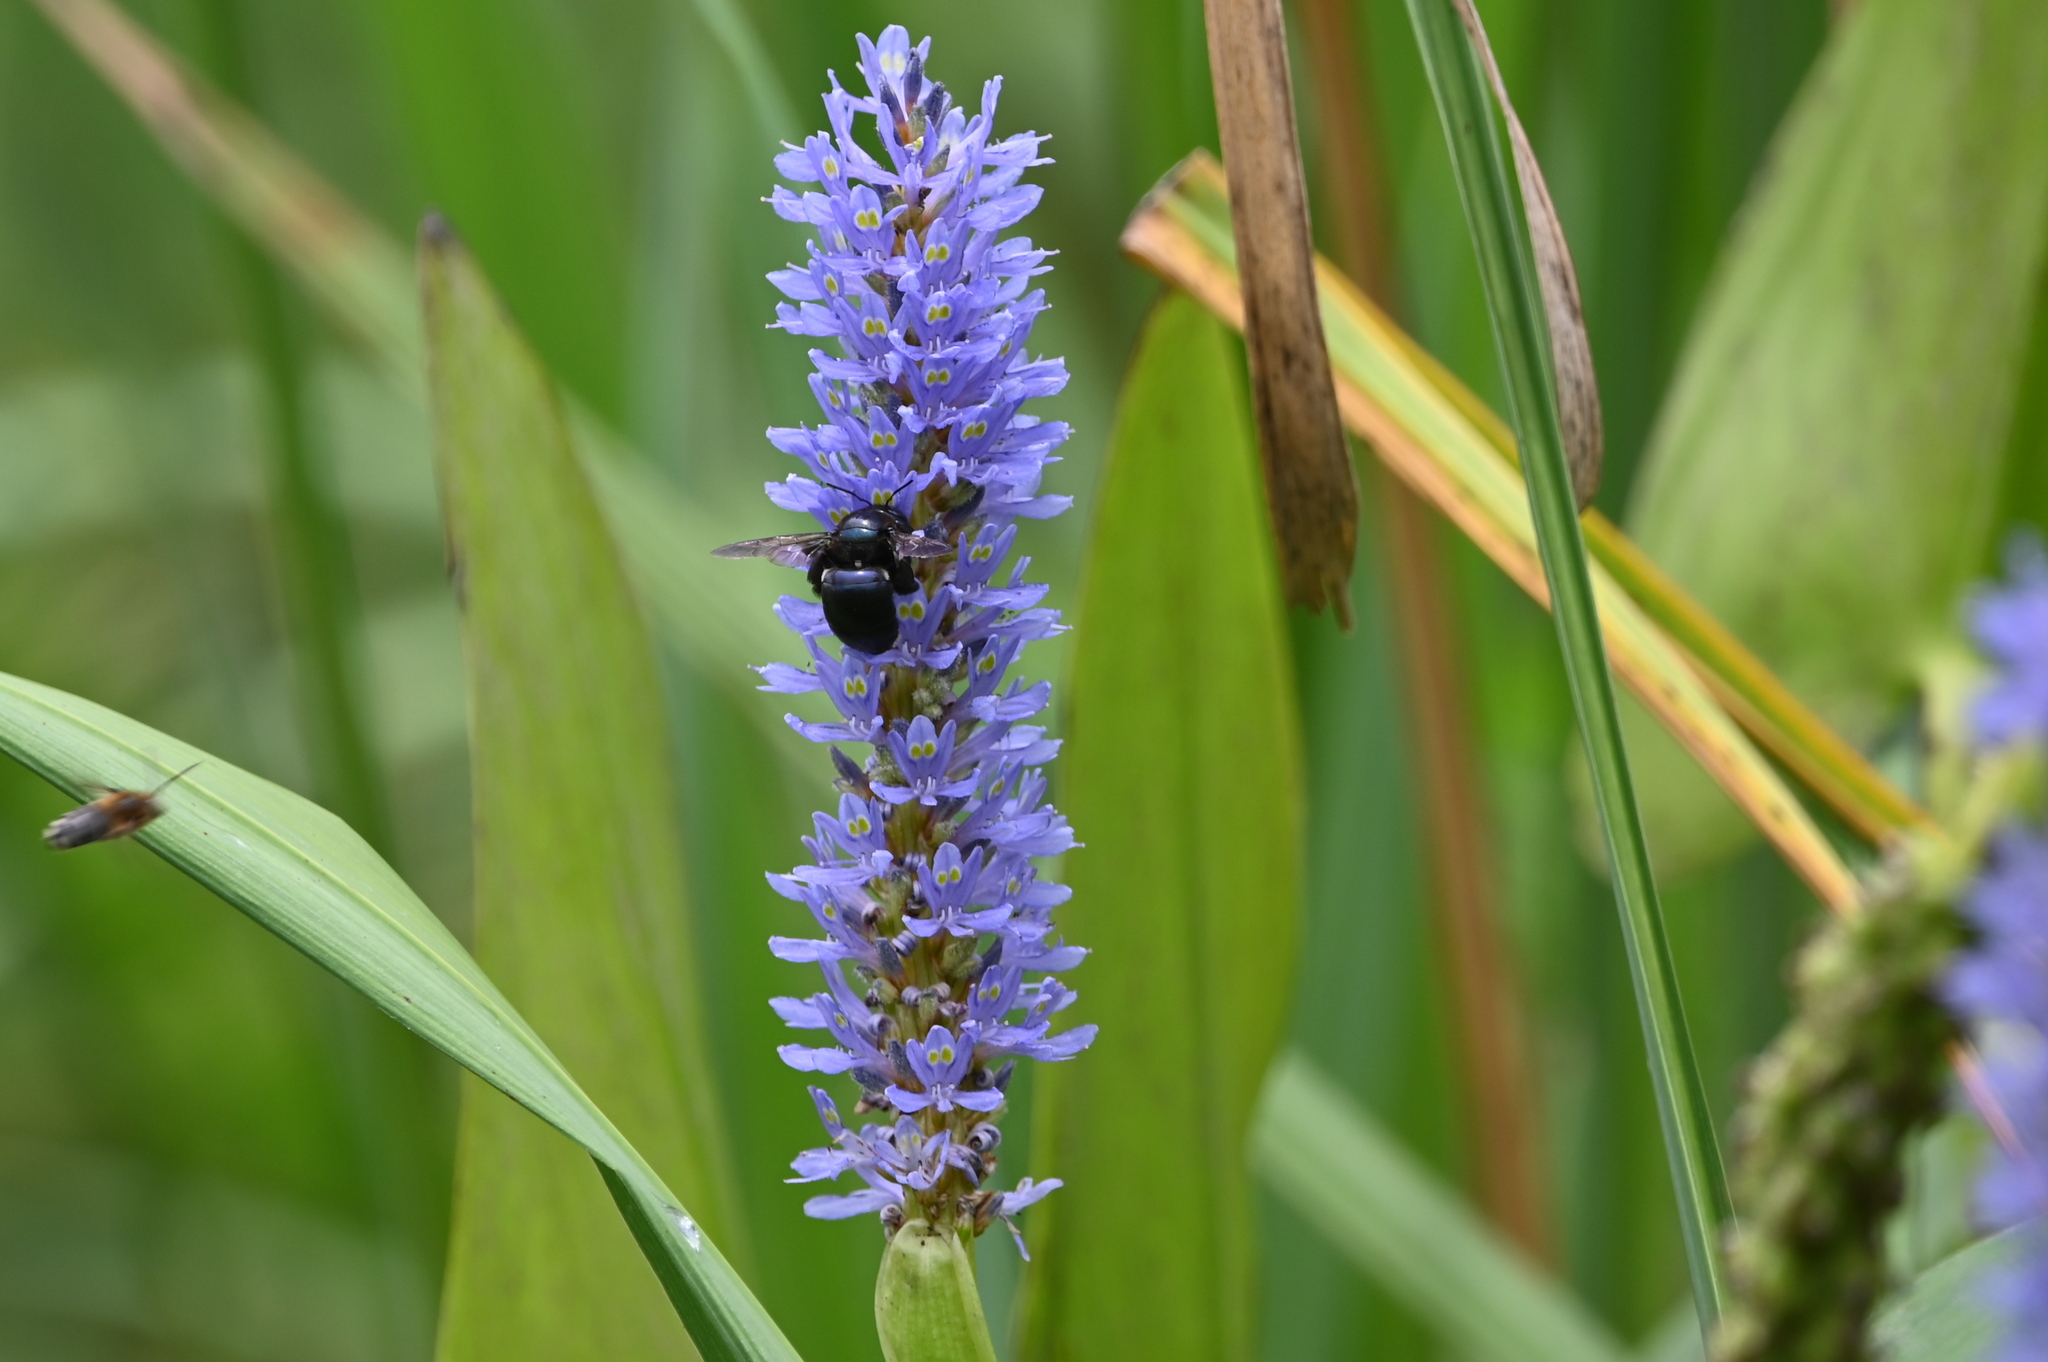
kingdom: Animalia
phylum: Arthropoda
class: Insecta
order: Hymenoptera
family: Apidae
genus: Xylocopa
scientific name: Xylocopa micans
